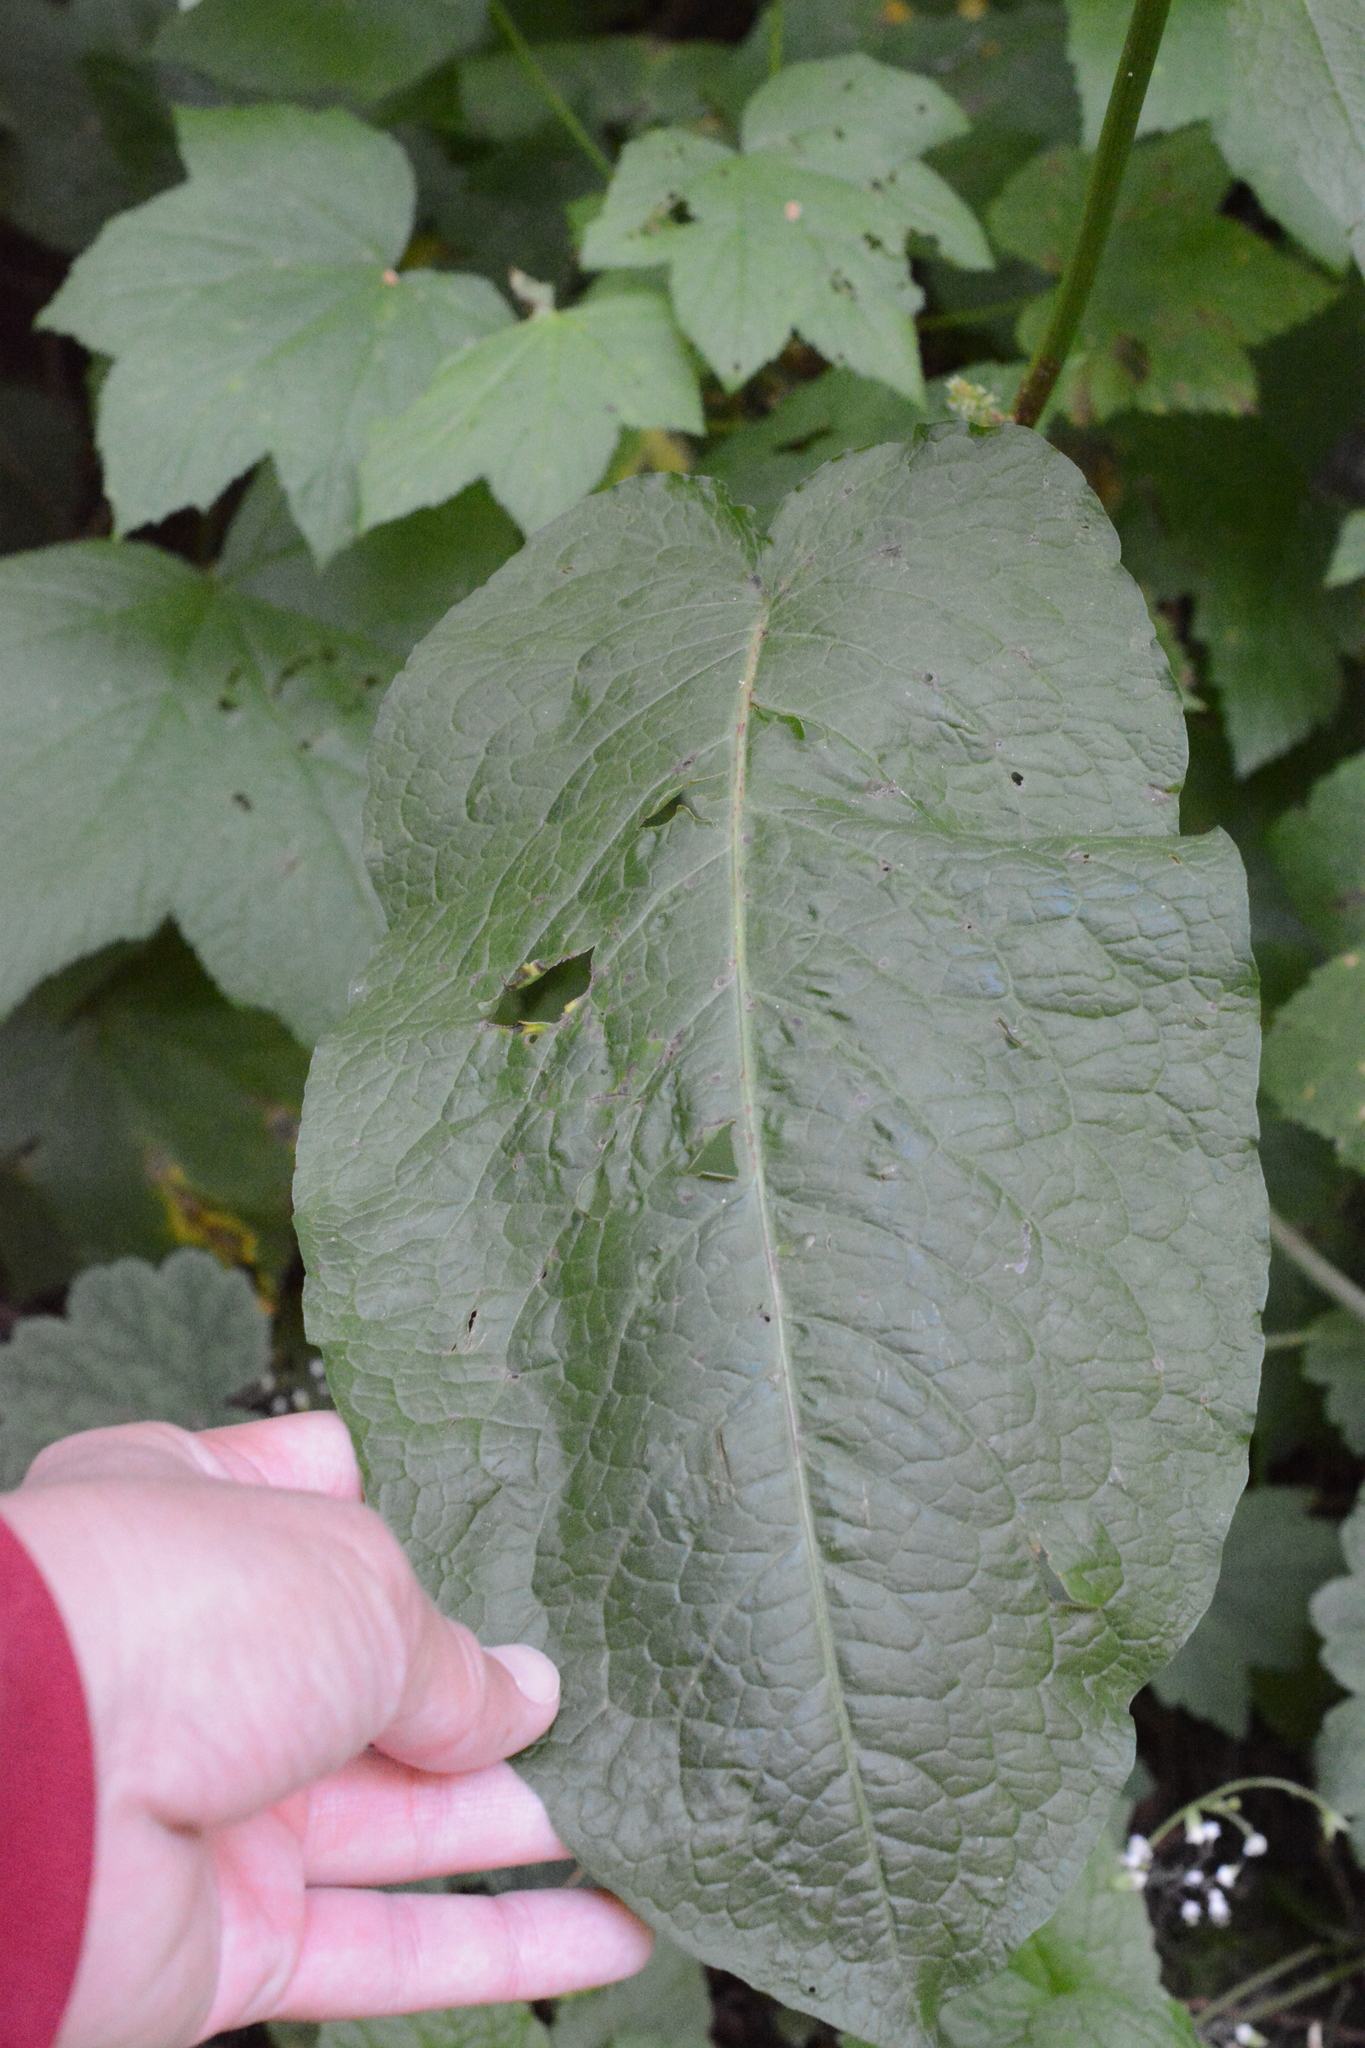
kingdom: Plantae
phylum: Tracheophyta
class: Magnoliopsida
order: Caryophyllales
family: Polygonaceae
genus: Rumex
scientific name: Rumex obtusifolius
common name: Bitter dock
